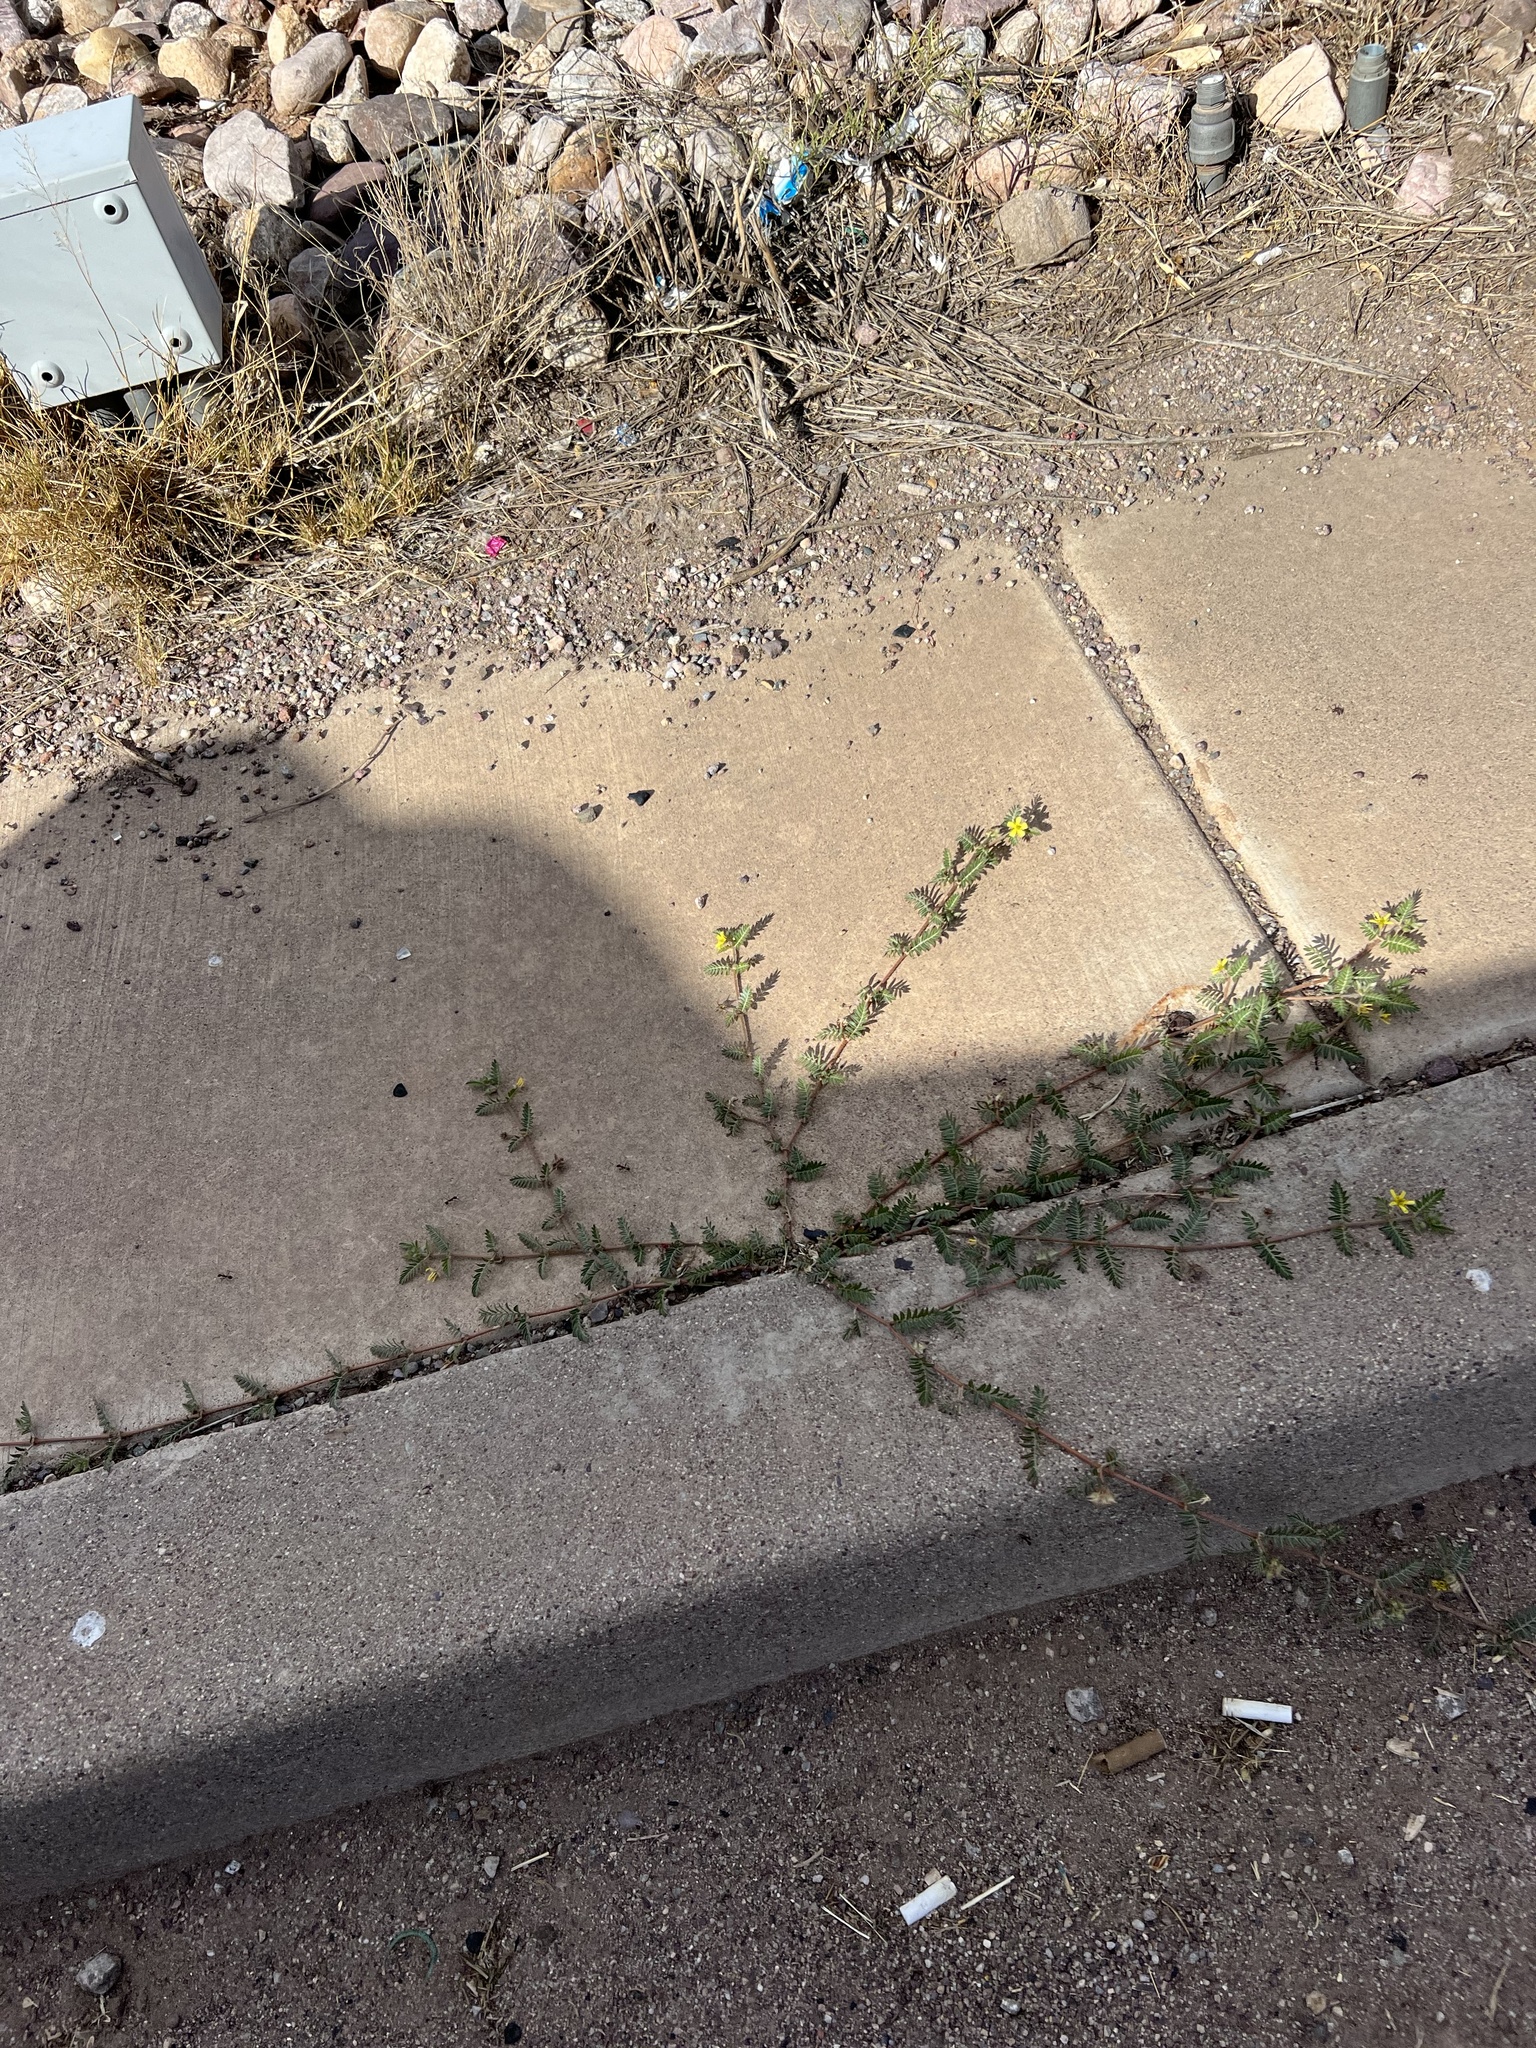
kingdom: Plantae
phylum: Tracheophyta
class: Magnoliopsida
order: Zygophyllales
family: Zygophyllaceae
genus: Tribulus
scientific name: Tribulus terrestris
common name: Puncturevine
